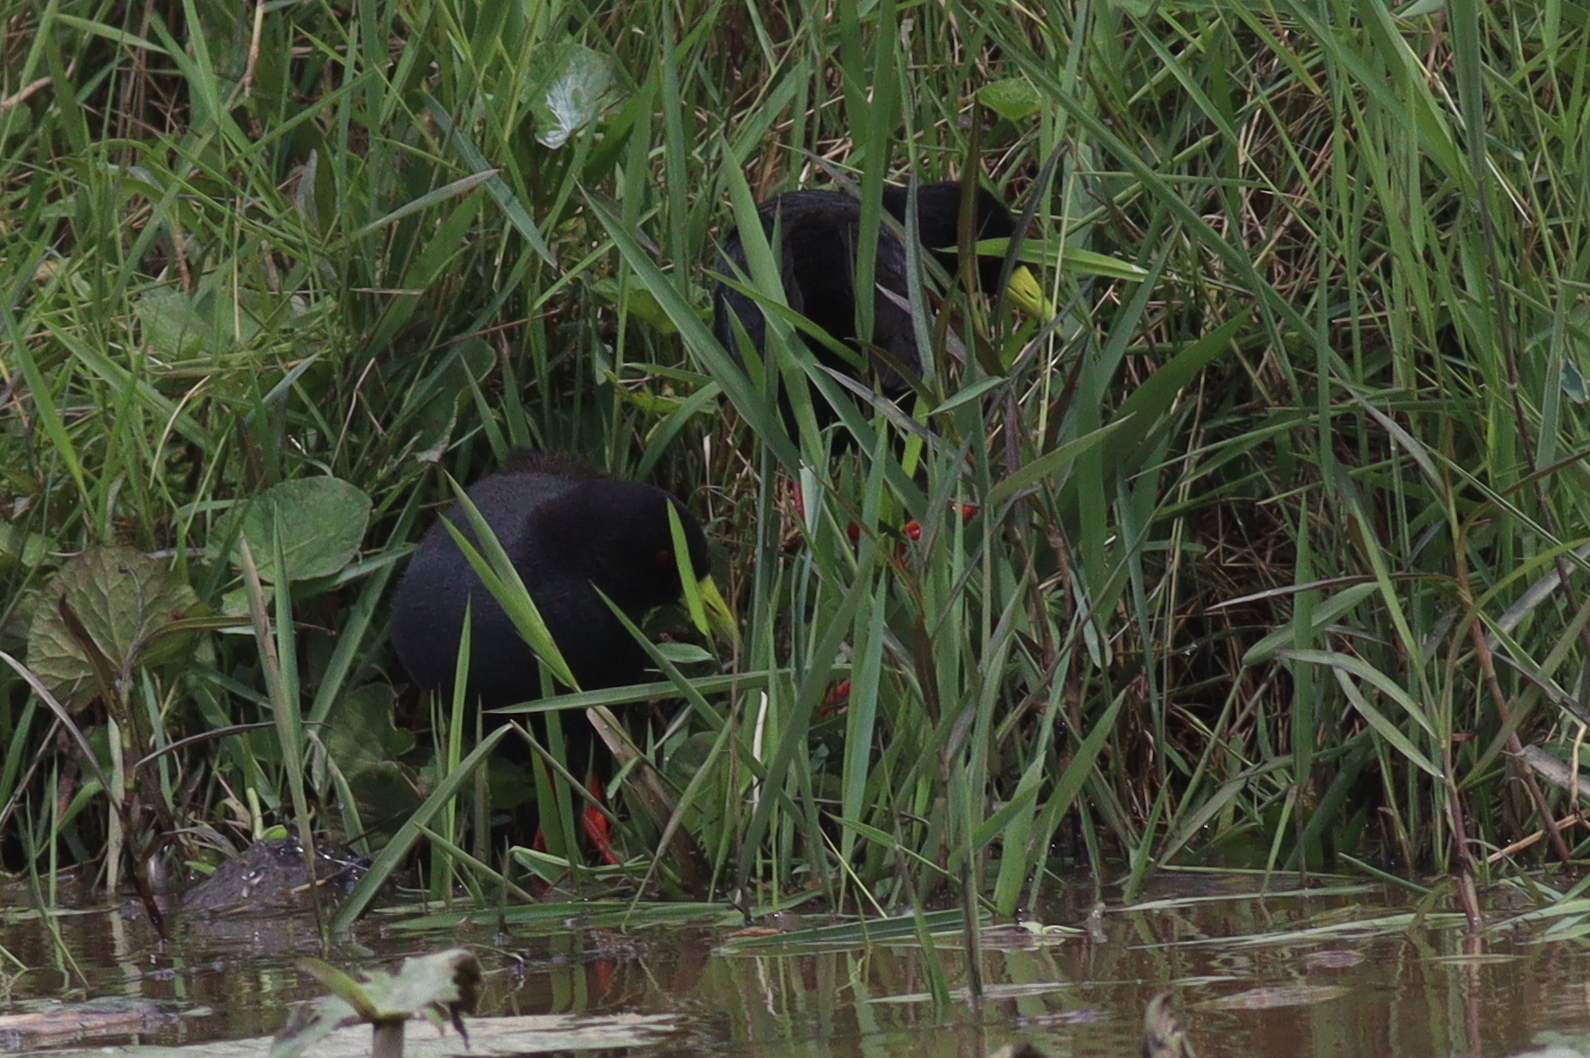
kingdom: Animalia
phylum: Chordata
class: Aves
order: Gruiformes
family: Rallidae
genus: Amaurornis
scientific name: Amaurornis flavirostra
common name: Black crake
